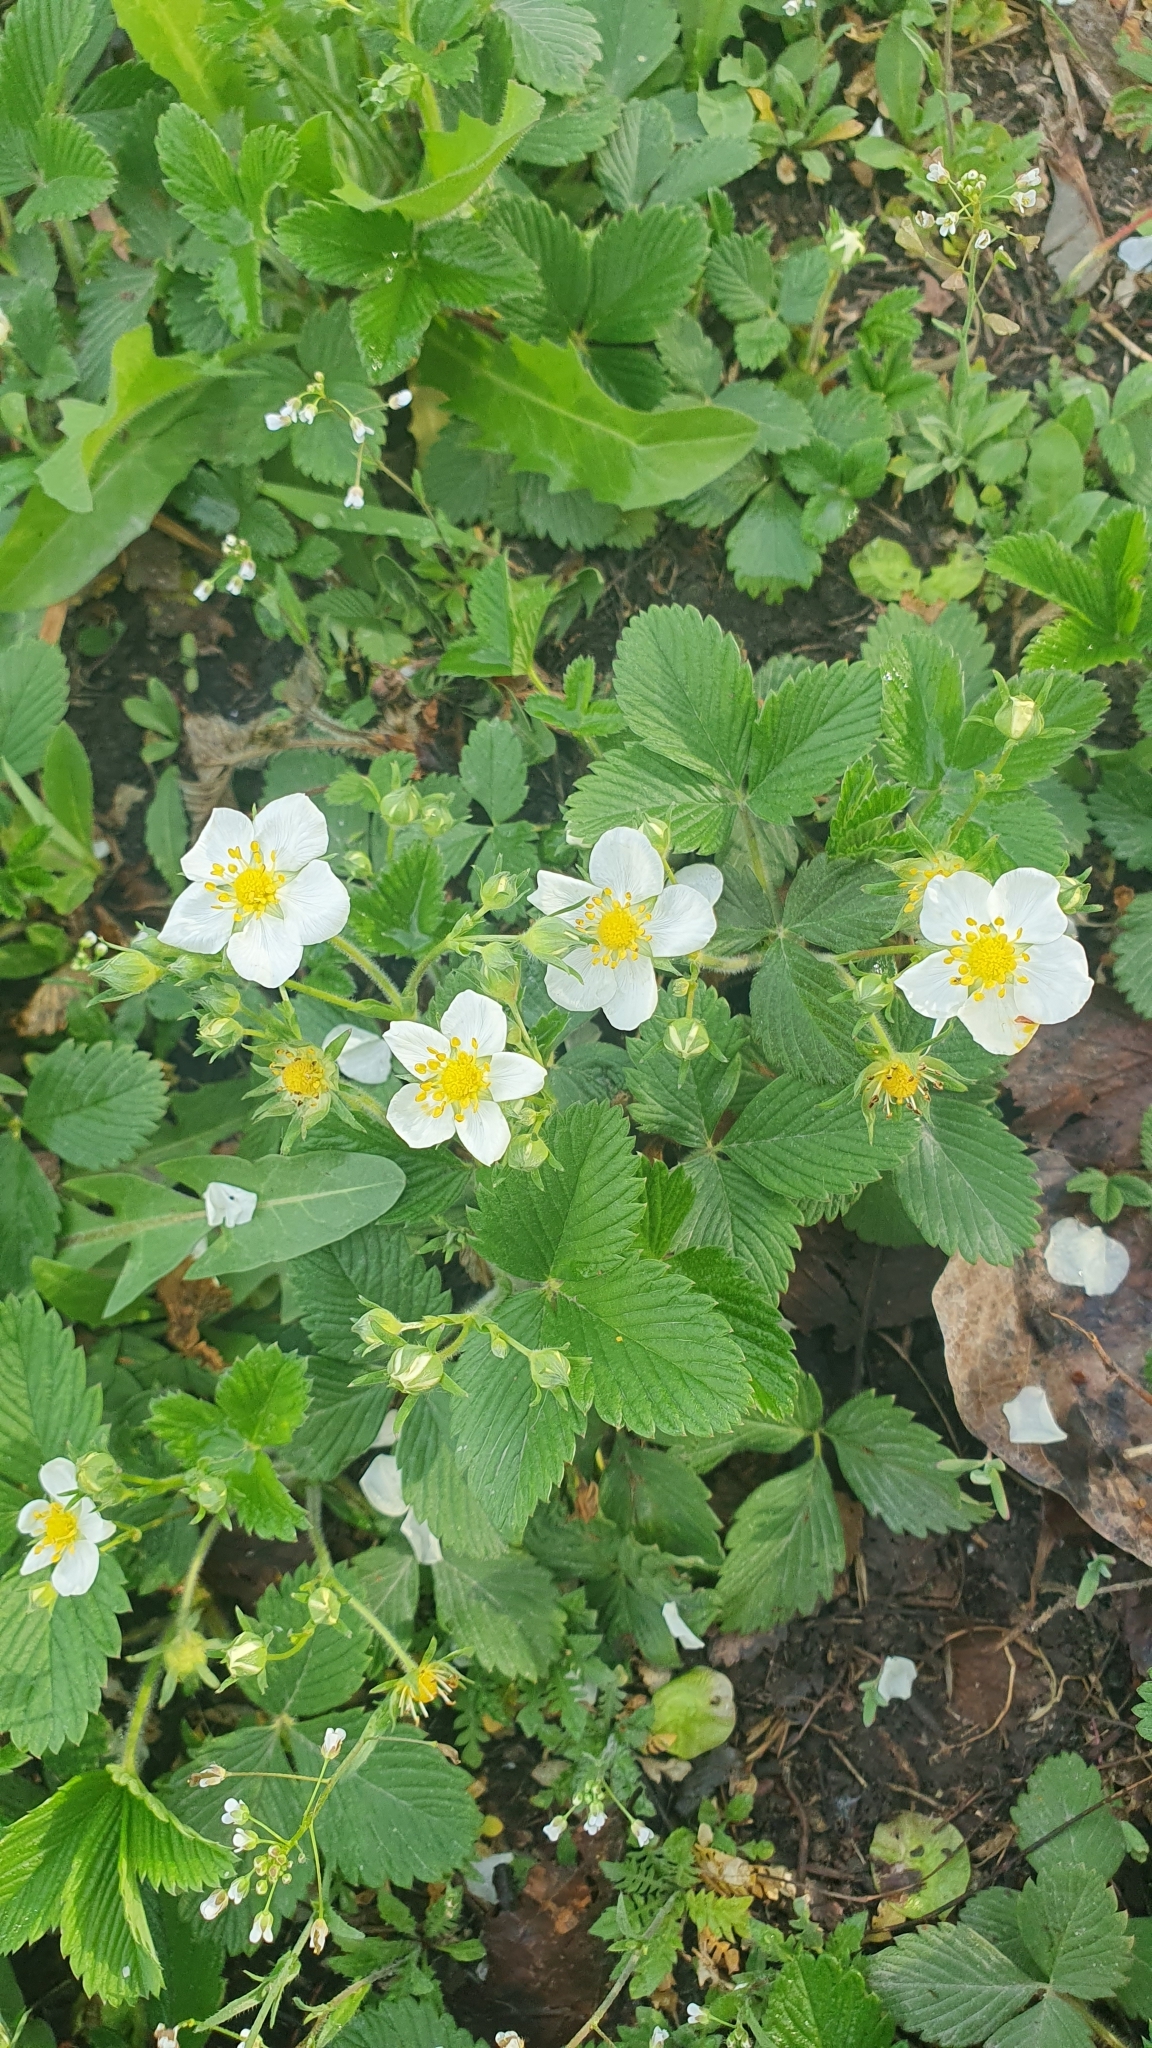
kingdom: Plantae
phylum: Tracheophyta
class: Magnoliopsida
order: Rosales
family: Rosaceae
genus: Fragaria
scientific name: Fragaria viridis
